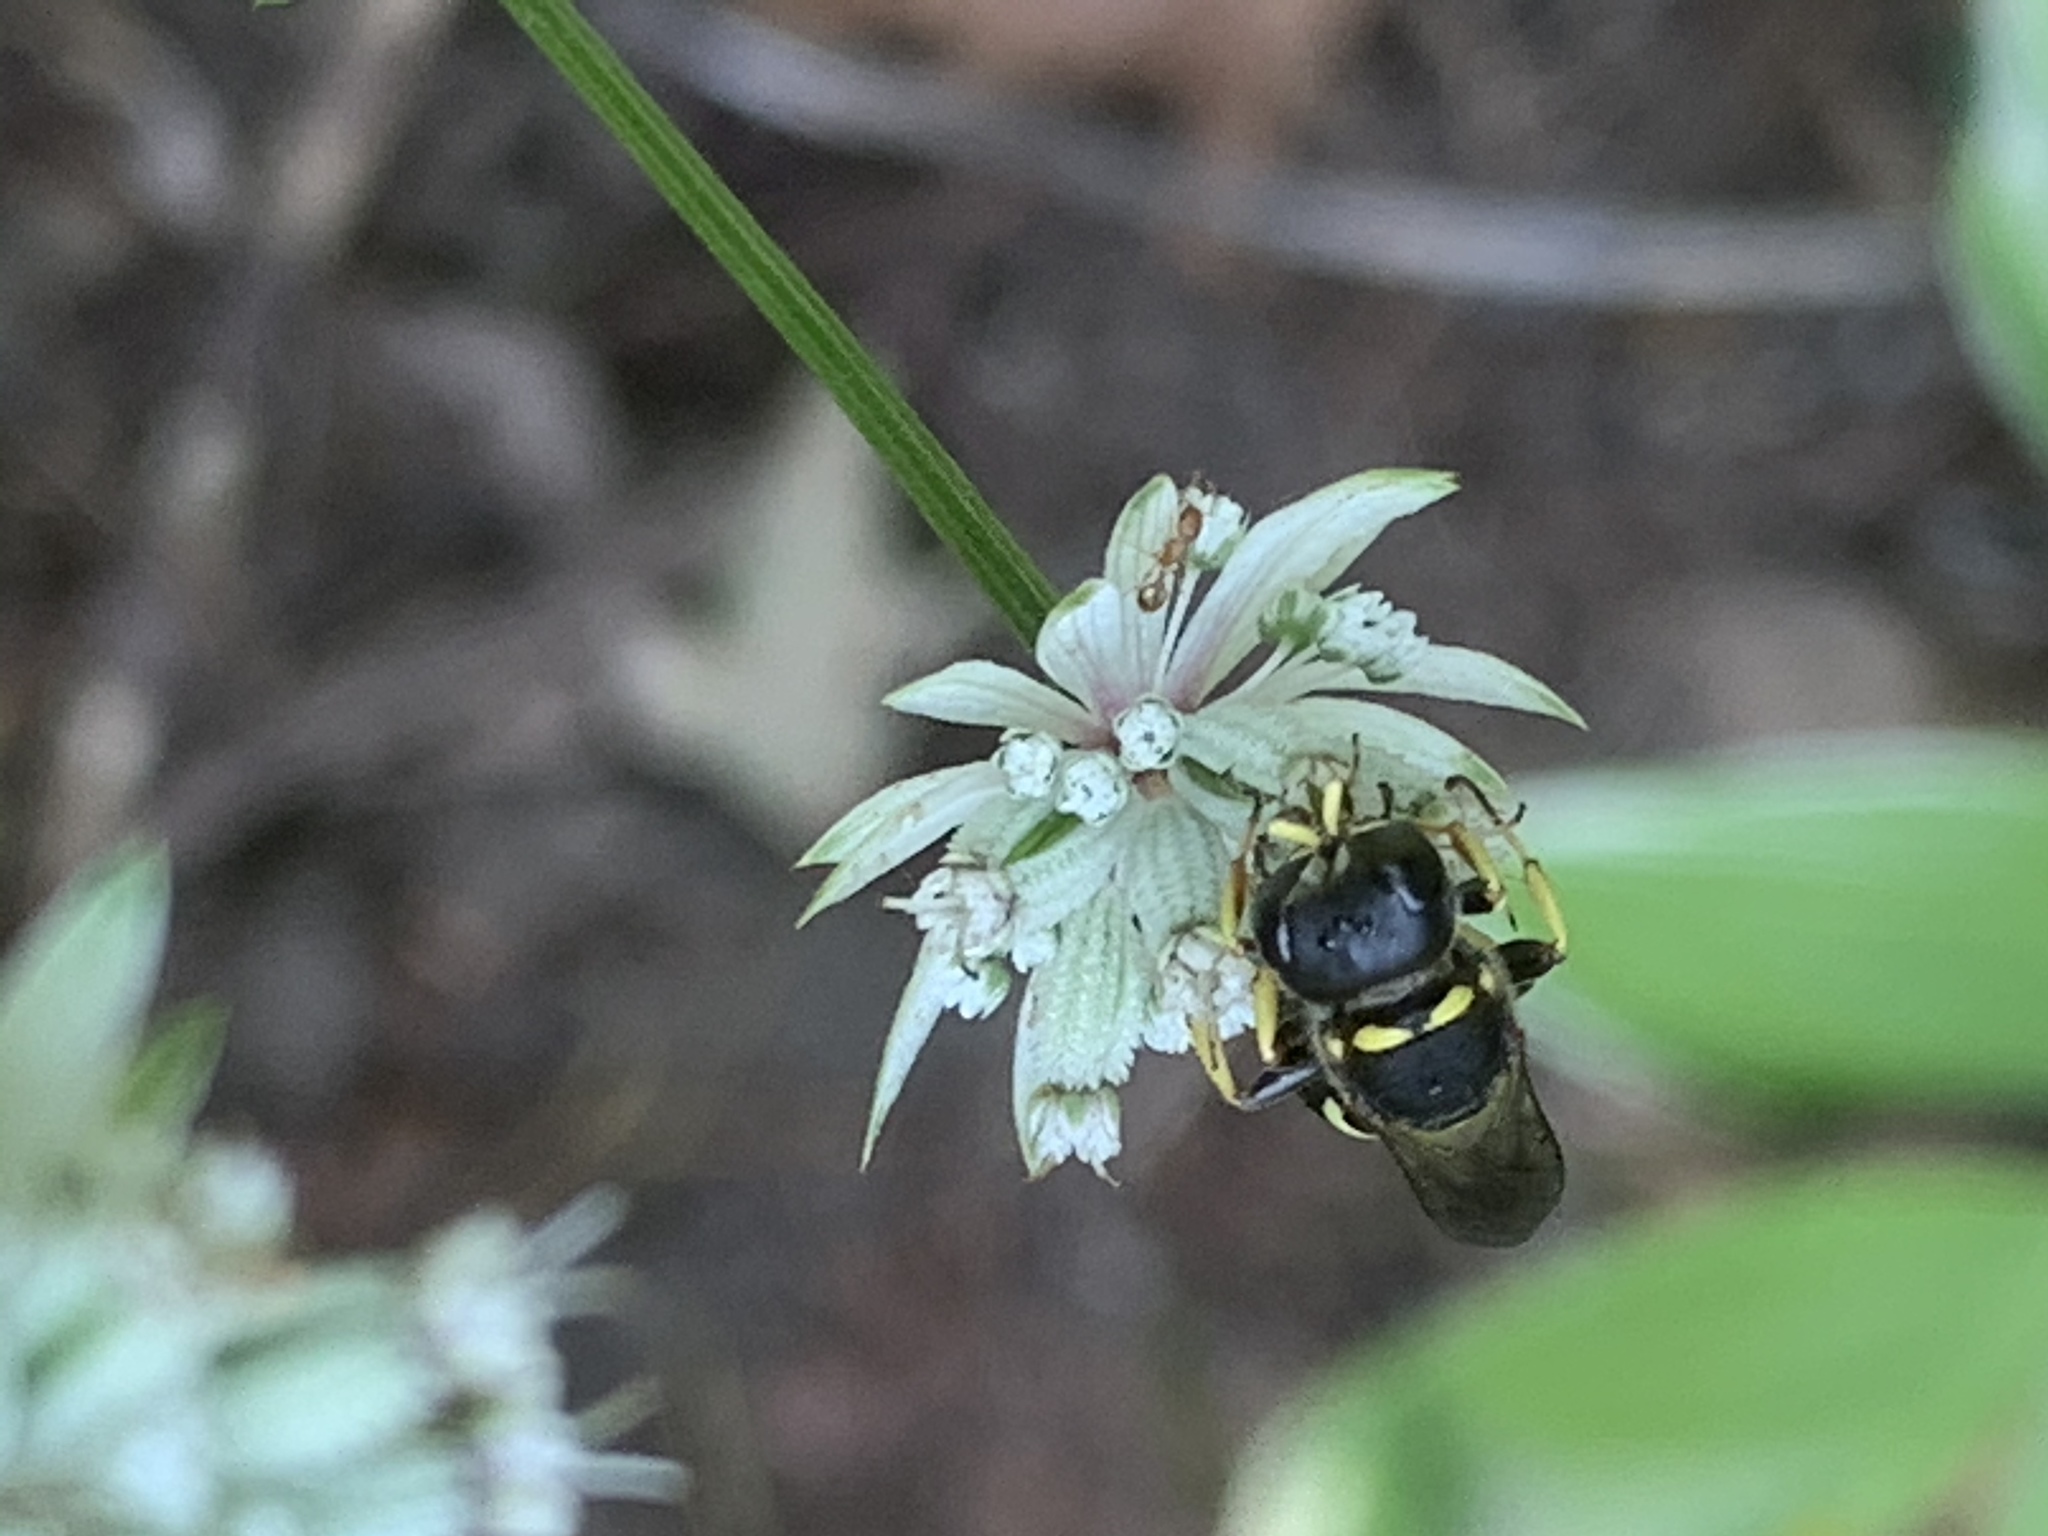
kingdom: Animalia
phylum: Arthropoda
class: Insecta
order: Hymenoptera
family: Crabronidae
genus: Ectemnius
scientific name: Ectemnius continuus
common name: Common ectemnius
